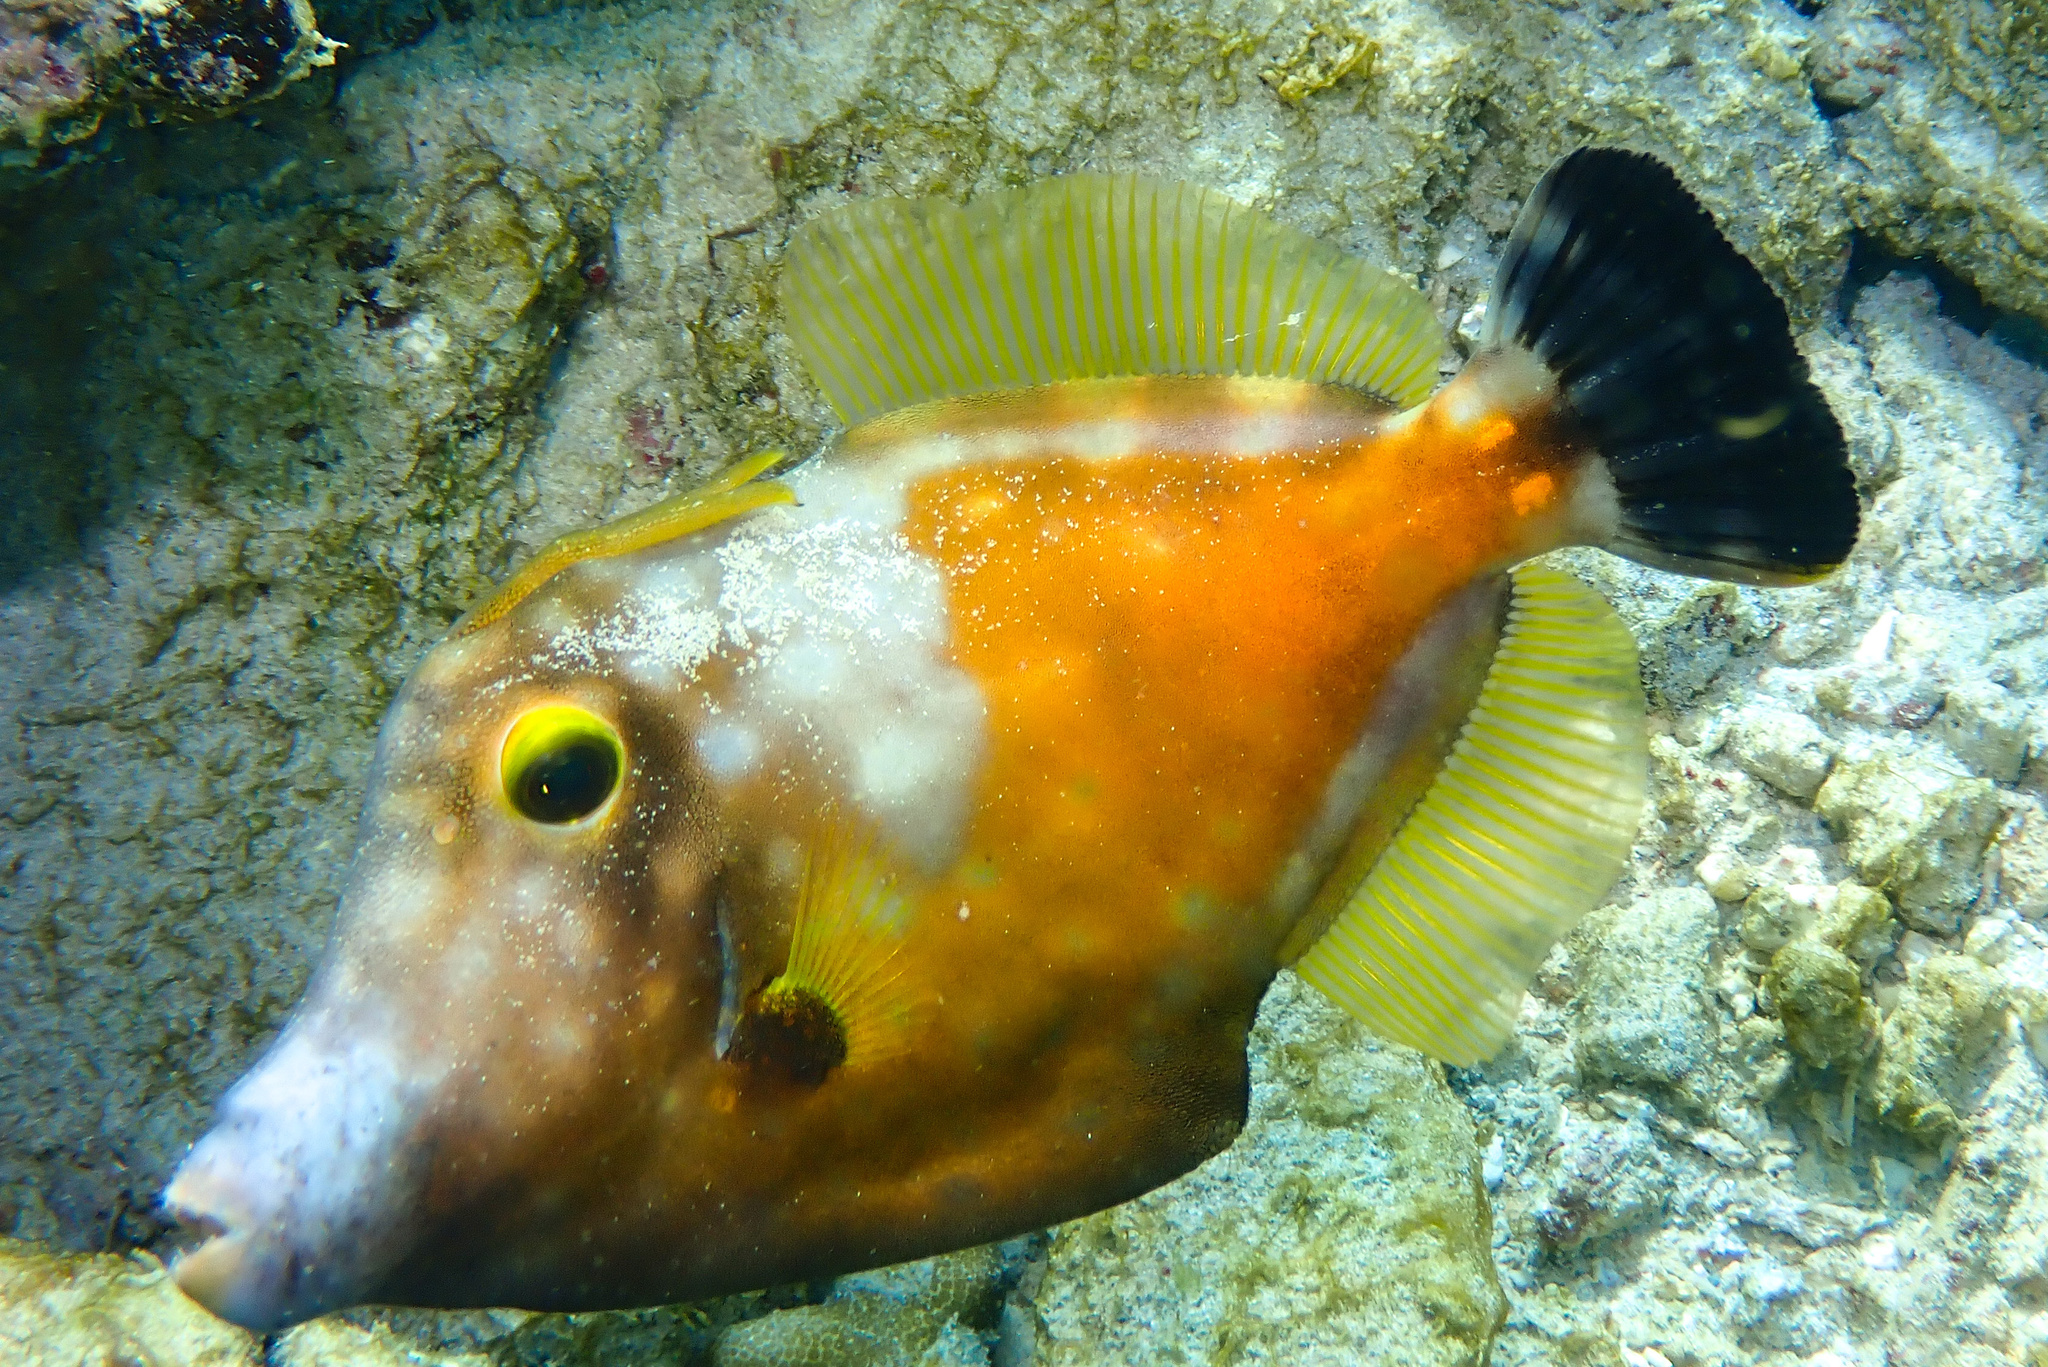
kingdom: Animalia
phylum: Chordata
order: Tetraodontiformes
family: Monacanthidae
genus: Cantherhines
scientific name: Cantherhines macrocerus
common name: Whitespotted filefish
